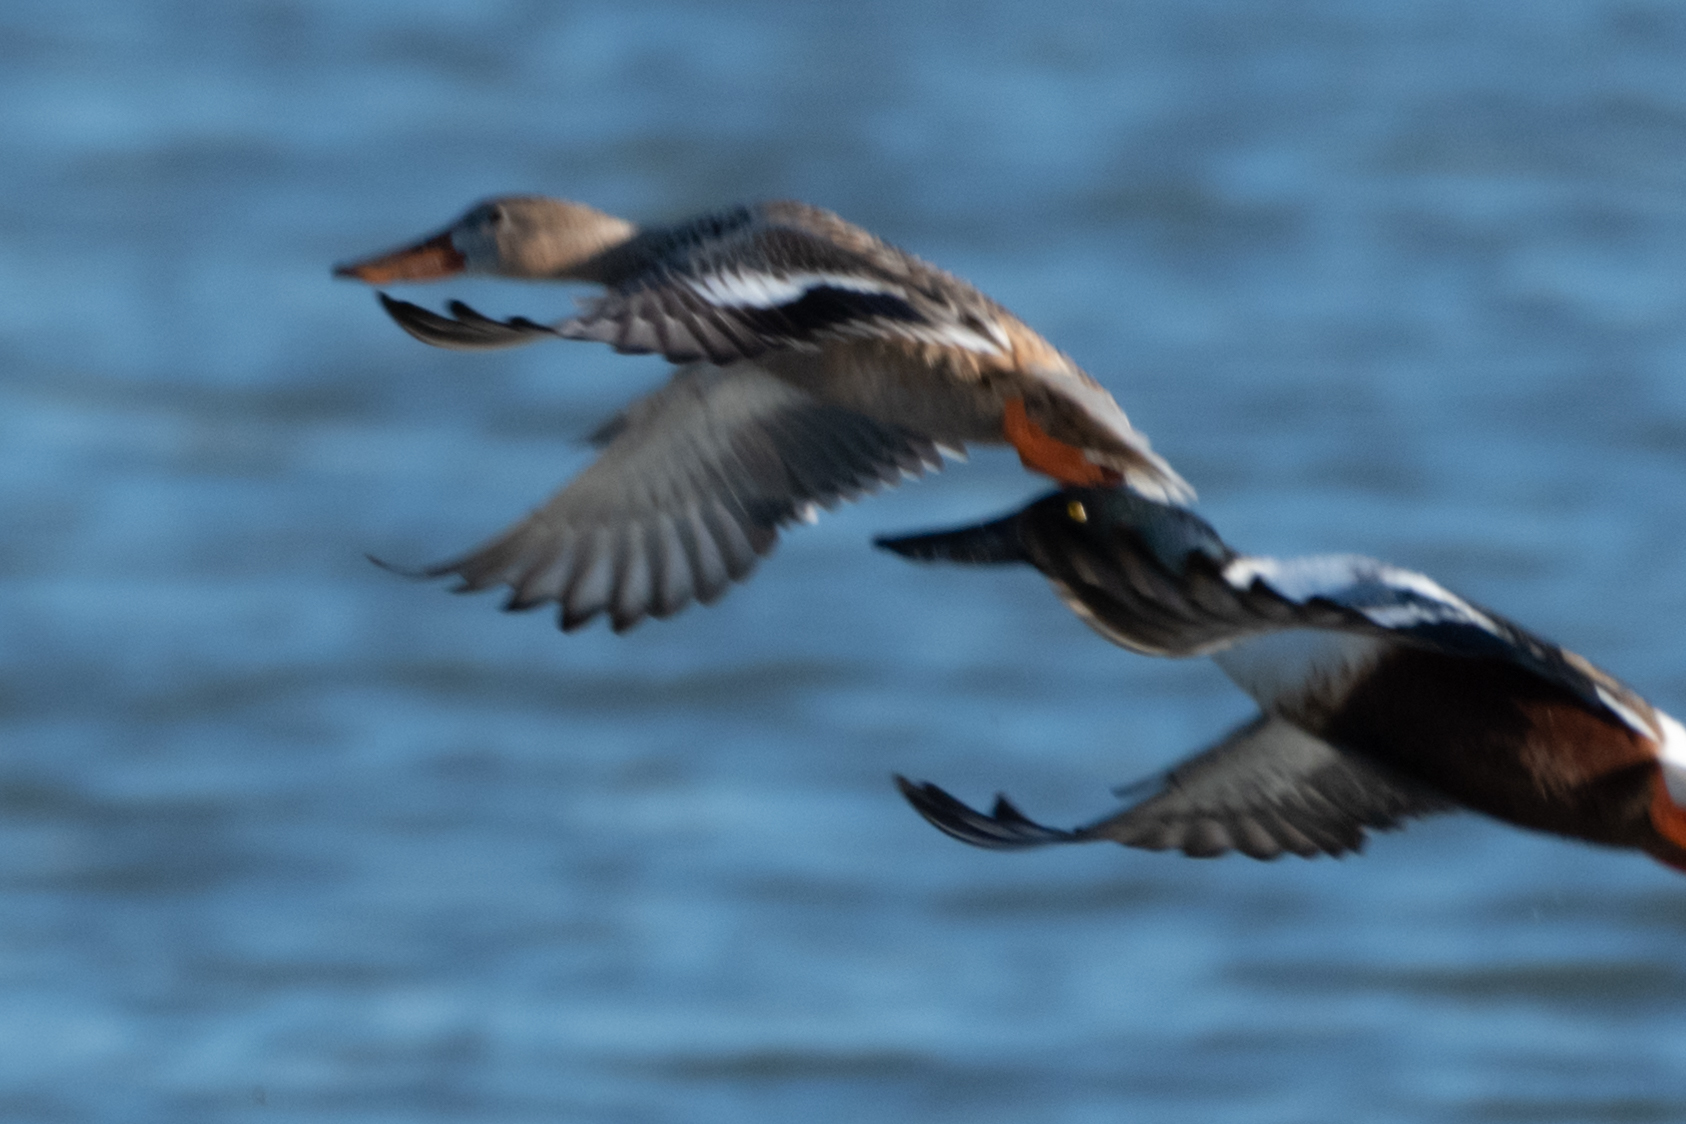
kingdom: Animalia
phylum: Chordata
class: Aves
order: Anseriformes
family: Anatidae
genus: Spatula
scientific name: Spatula clypeata
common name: Northern shoveler
